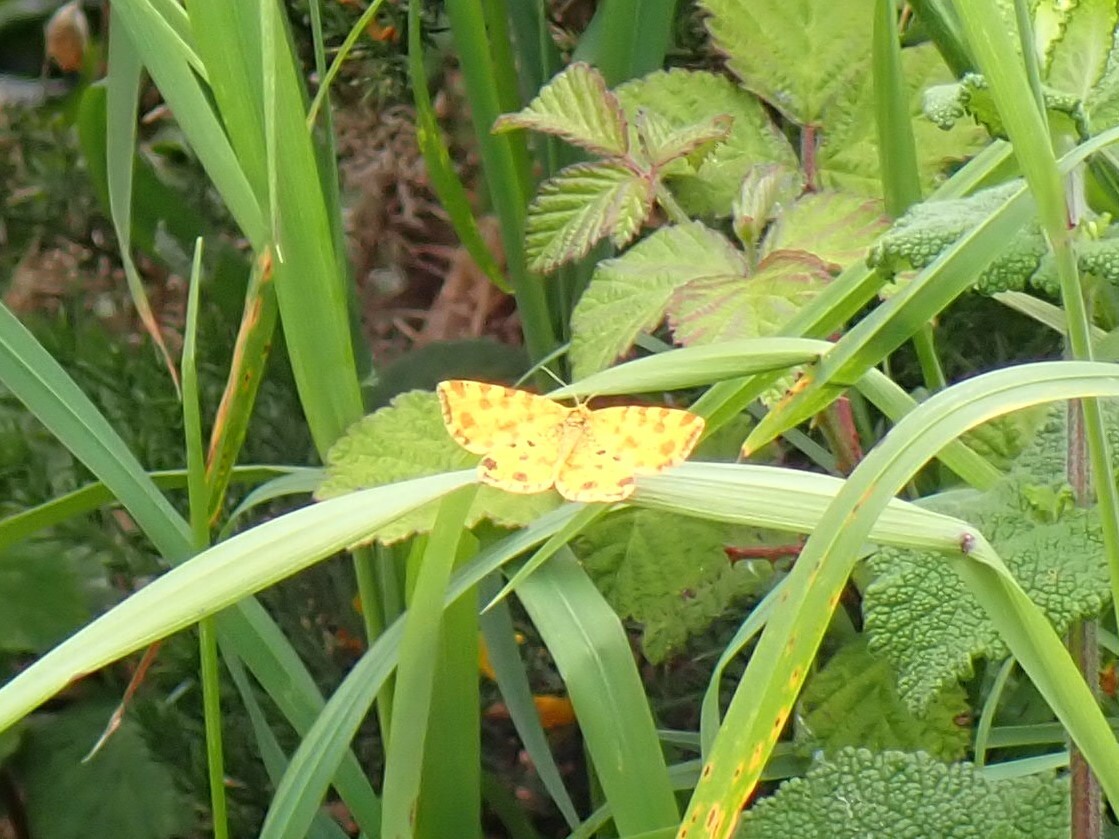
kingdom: Animalia
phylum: Arthropoda
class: Insecta
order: Lepidoptera
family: Geometridae
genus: Pseudopanthera
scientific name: Pseudopanthera macularia
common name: Speckled yellow
